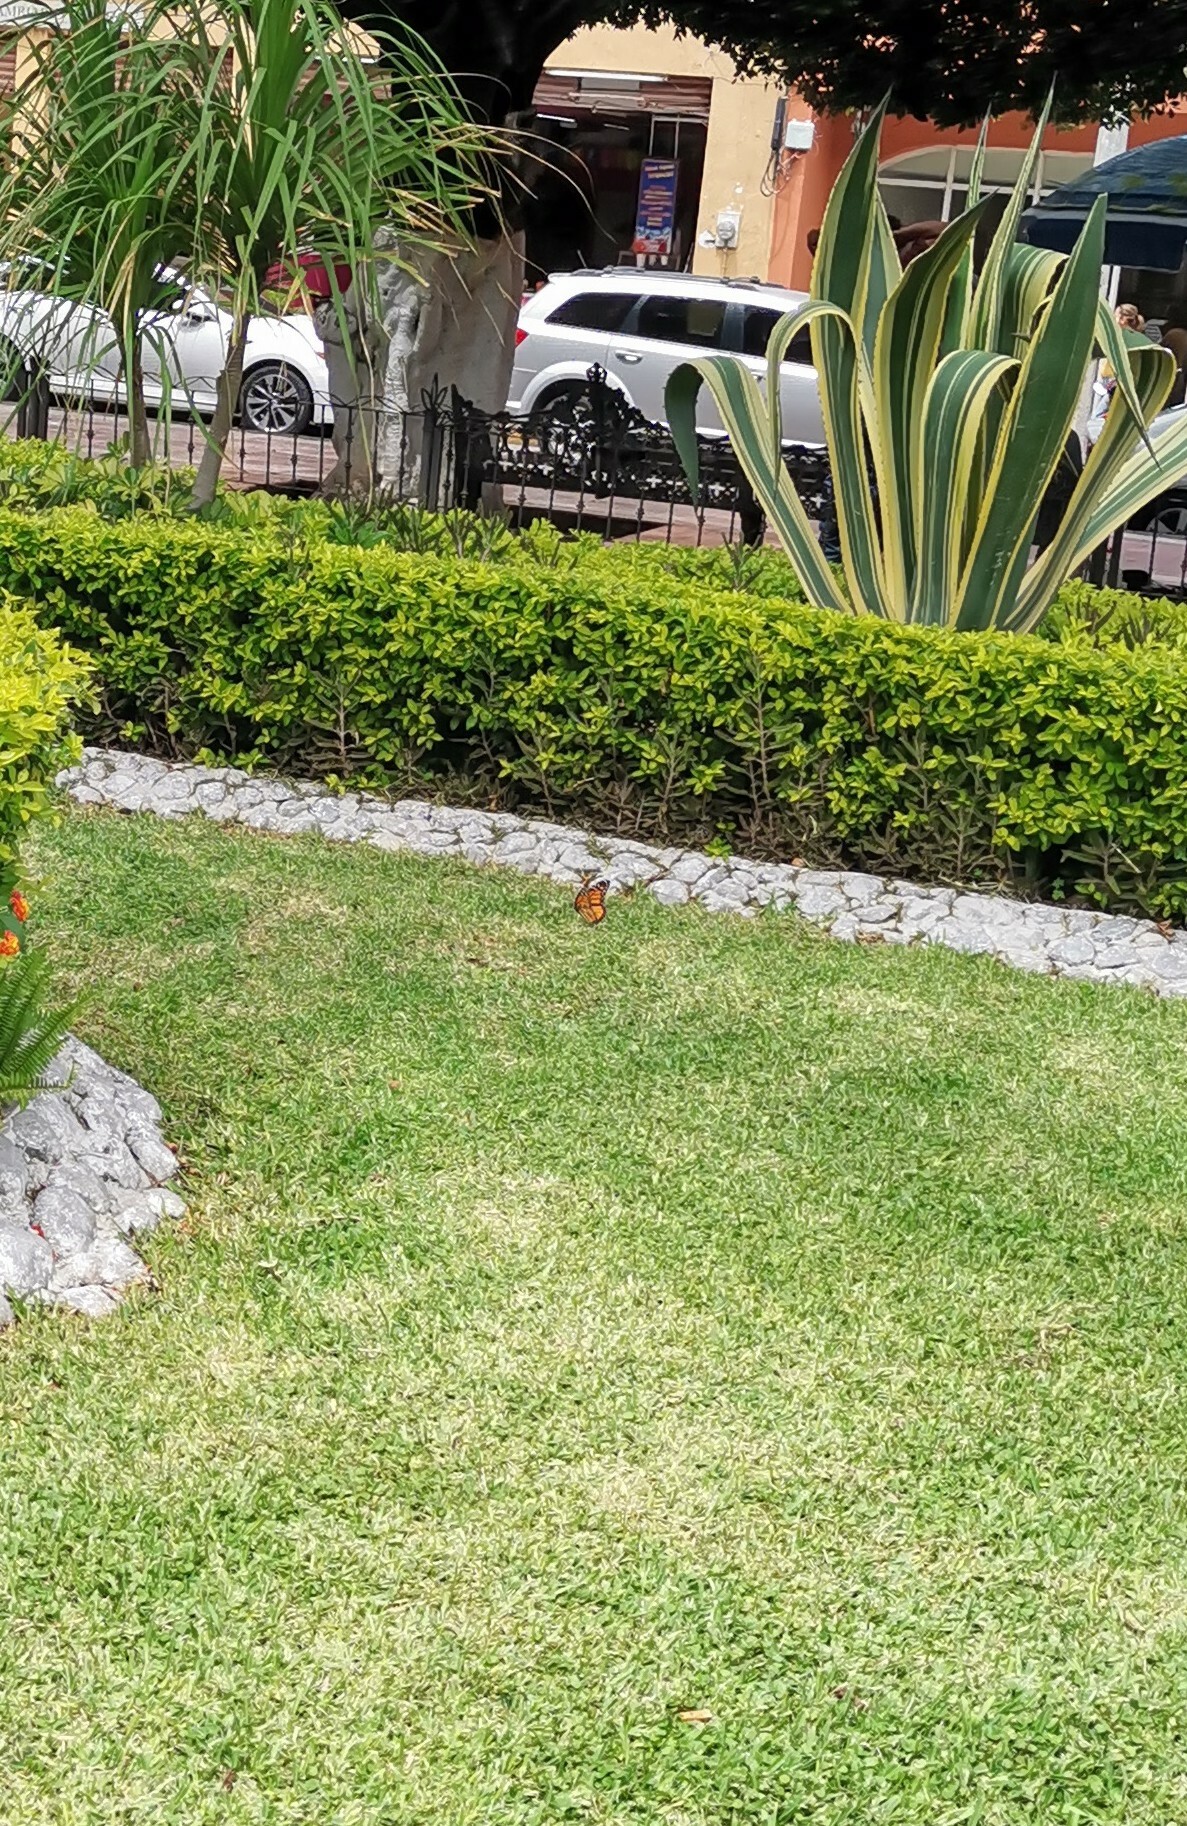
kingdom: Animalia
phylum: Arthropoda
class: Insecta
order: Lepidoptera
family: Nymphalidae
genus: Danaus
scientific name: Danaus plexippus
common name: Monarch
